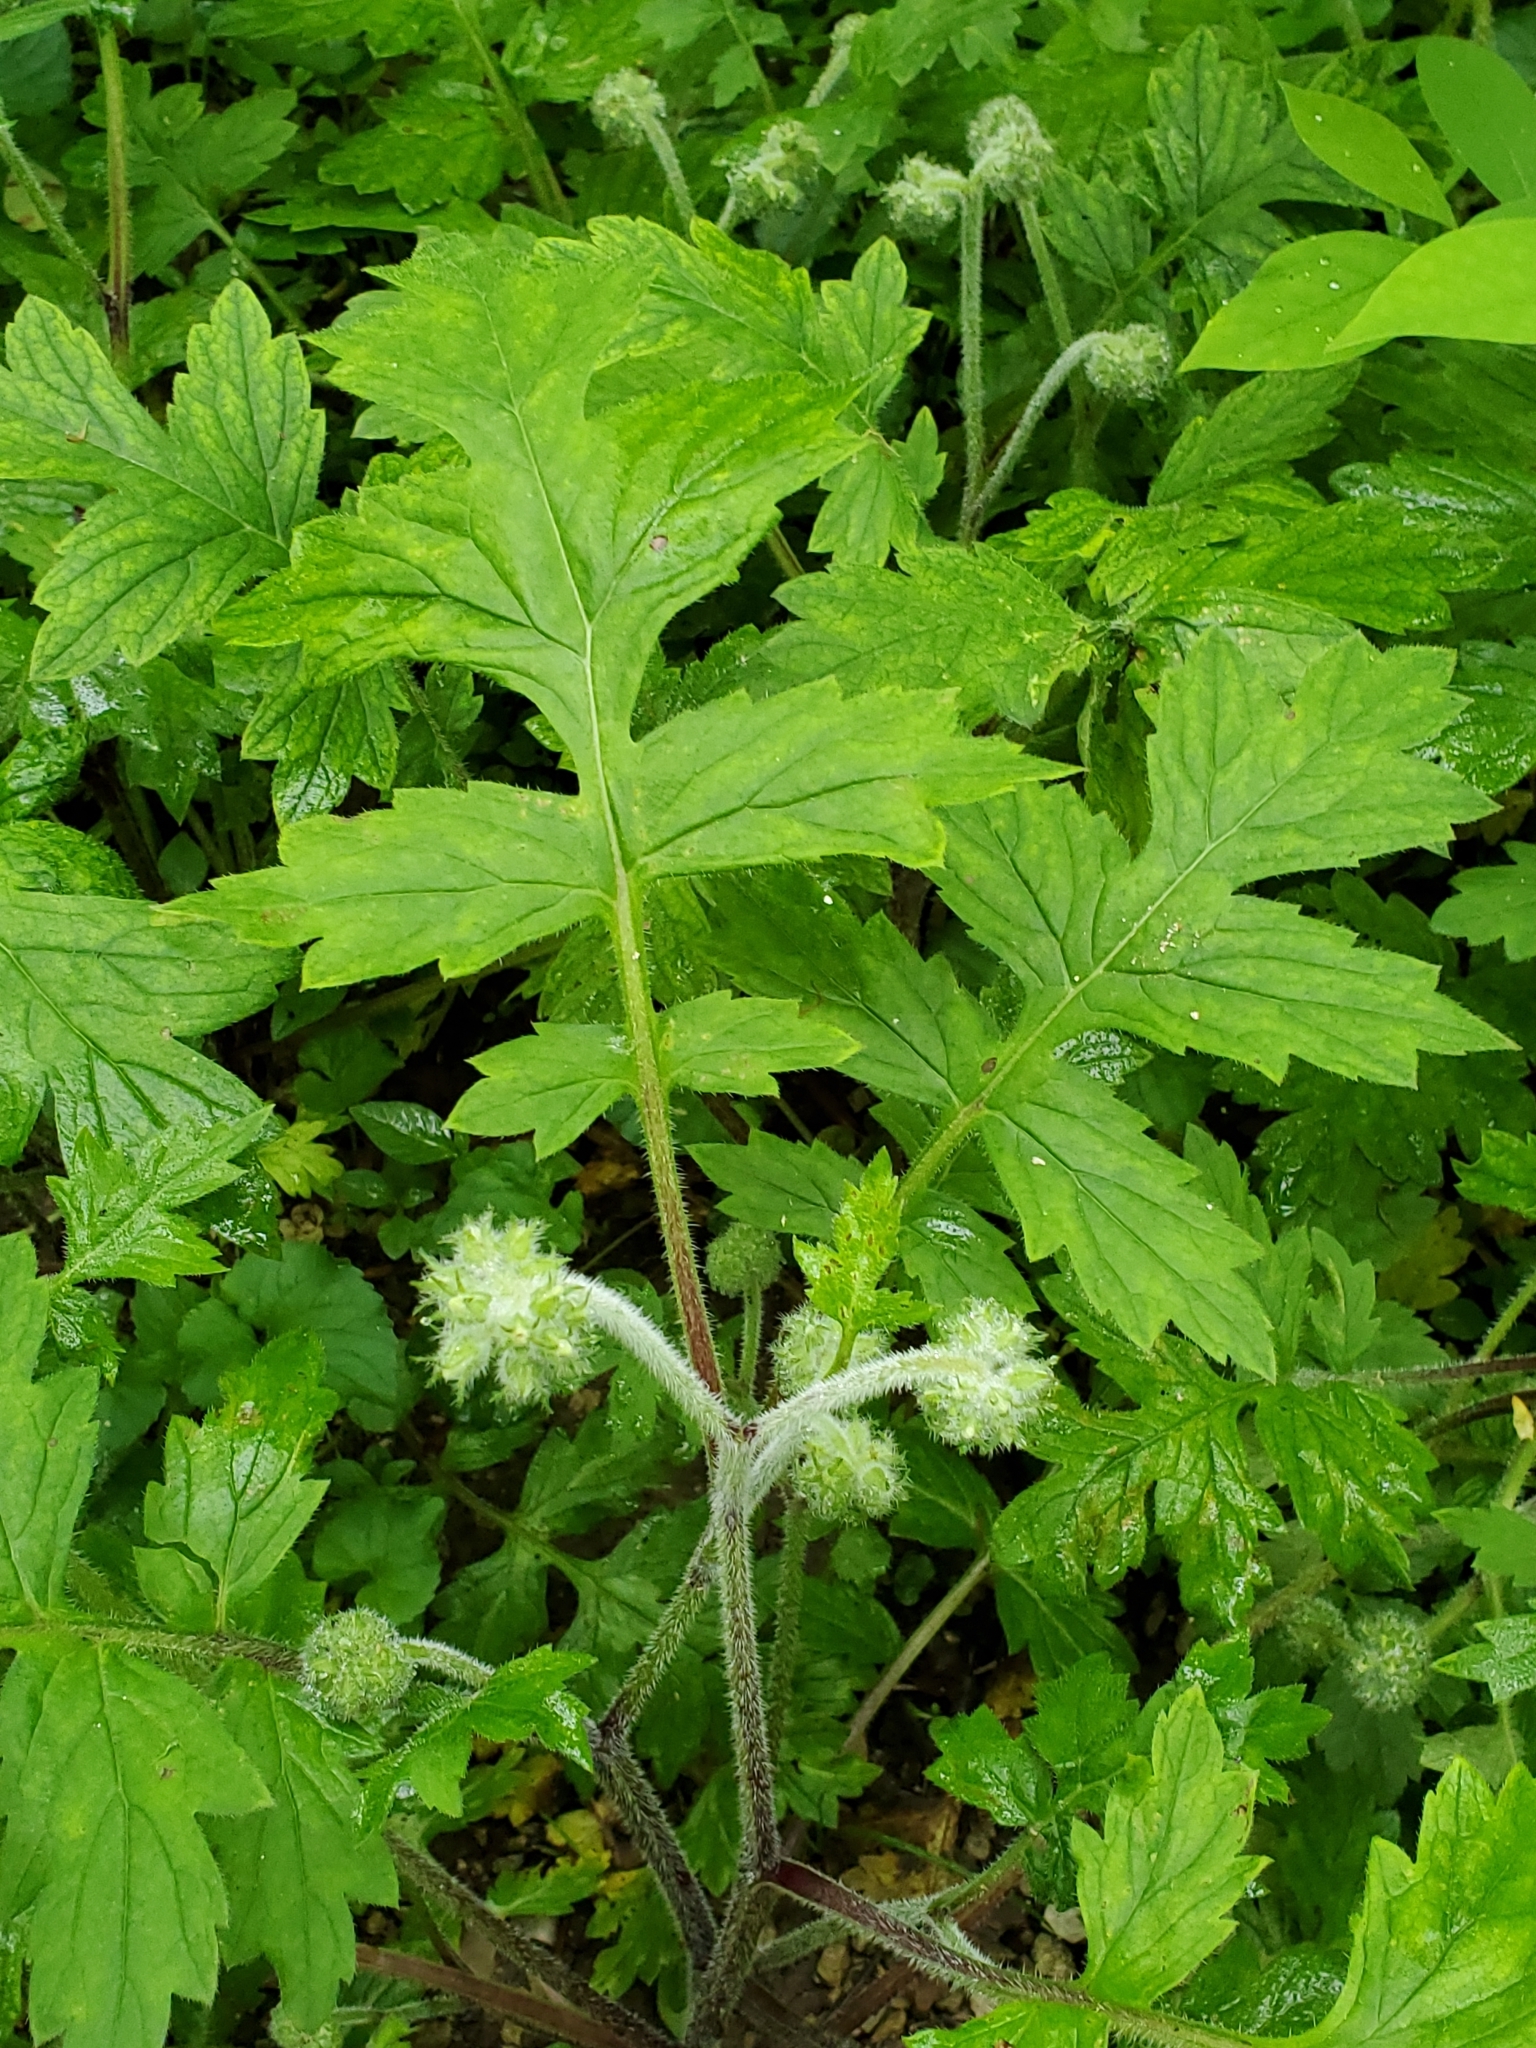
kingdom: Plantae
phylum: Tracheophyta
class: Magnoliopsida
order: Boraginales
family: Hydrophyllaceae
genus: Hydrophyllum
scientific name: Hydrophyllum macrophyllum
